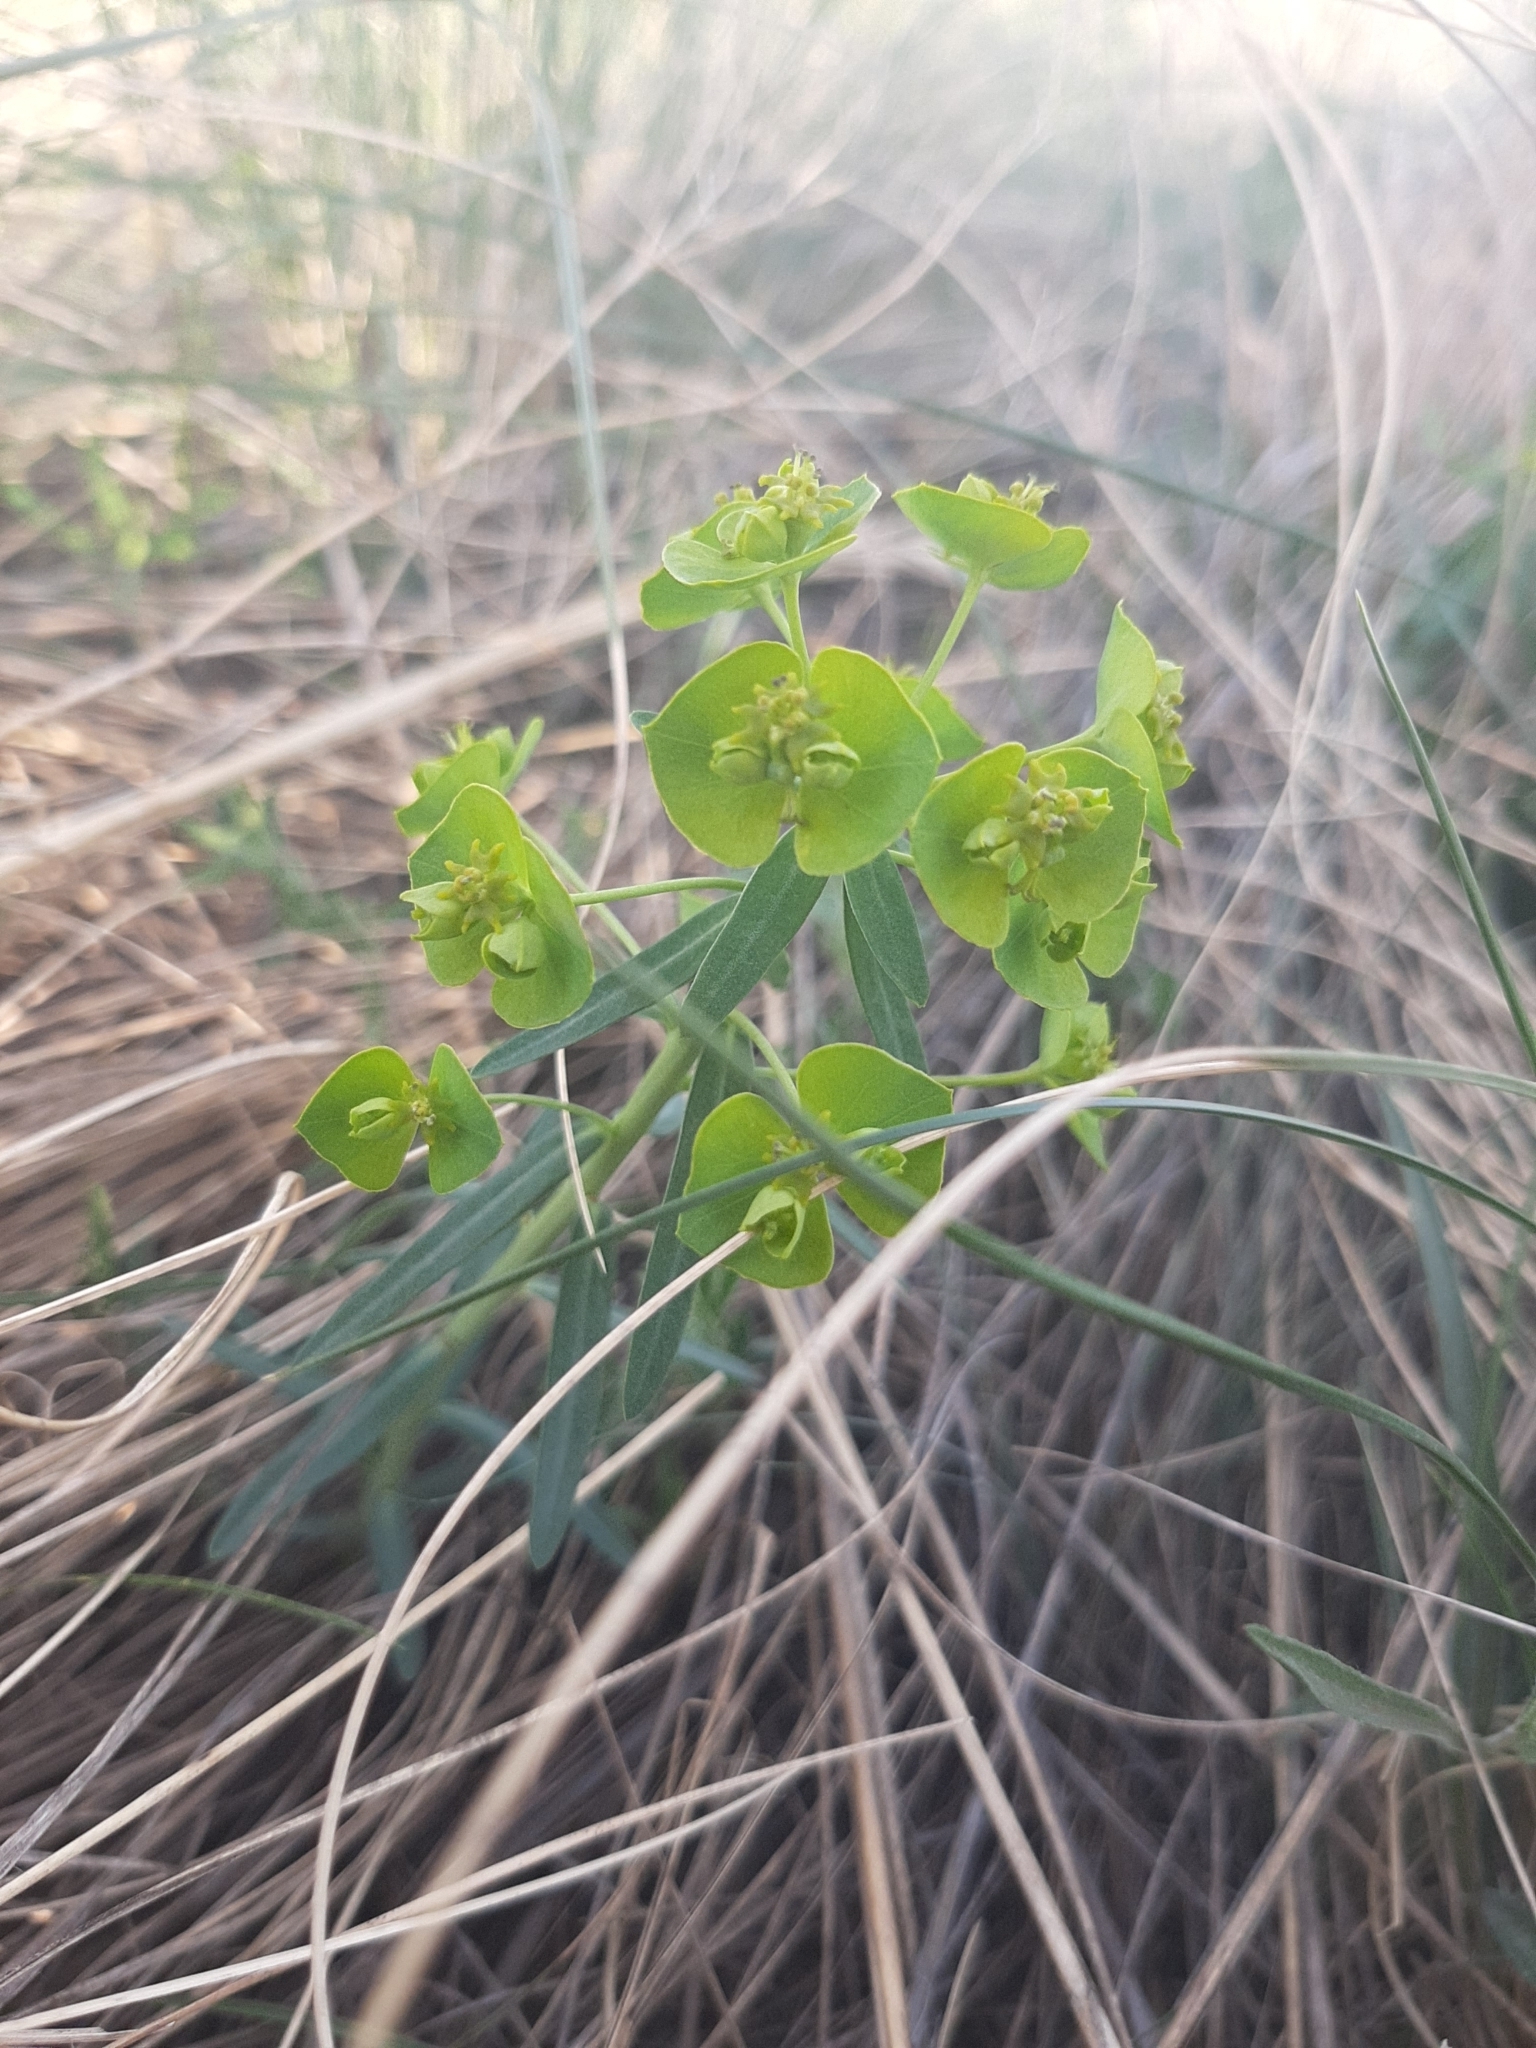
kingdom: Plantae
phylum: Tracheophyta
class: Magnoliopsida
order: Malpighiales
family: Euphorbiaceae
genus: Euphorbia
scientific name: Euphorbia virgata
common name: Leafy spurge
